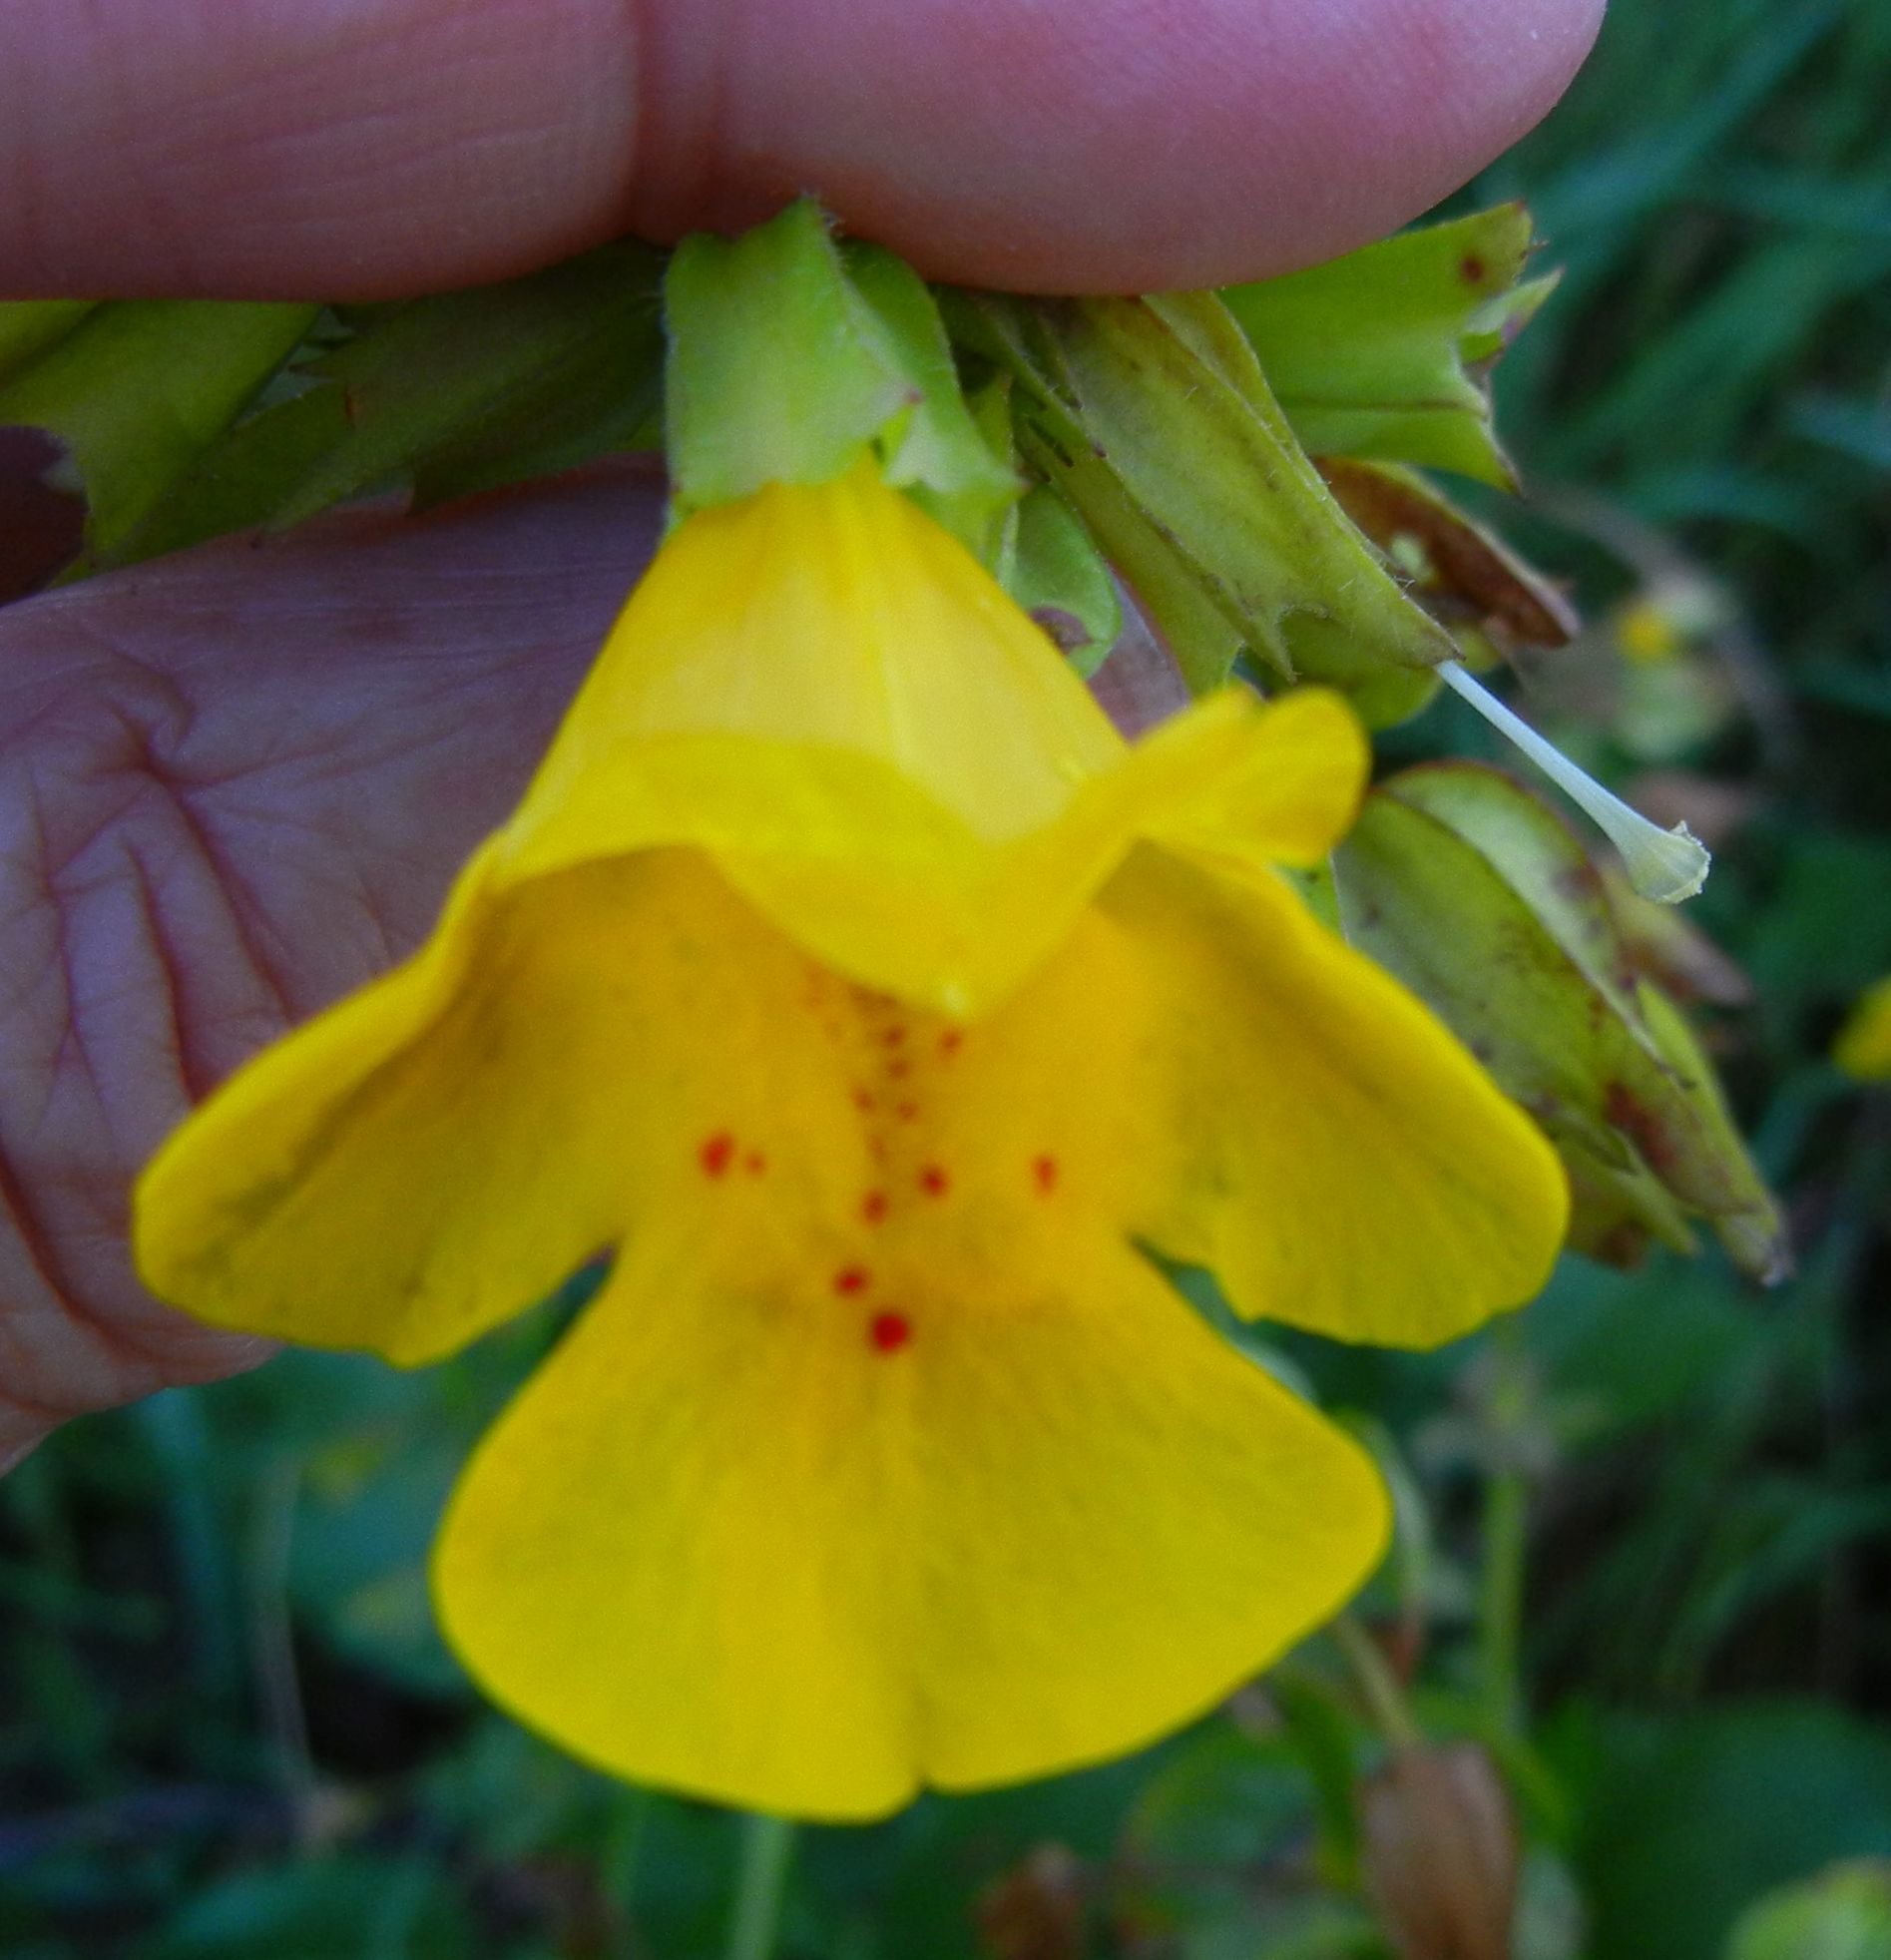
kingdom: Plantae
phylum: Tracheophyta
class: Magnoliopsida
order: Lamiales
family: Phrymaceae
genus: Erythranthe
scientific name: Erythranthe guttata
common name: Monkeyflower
